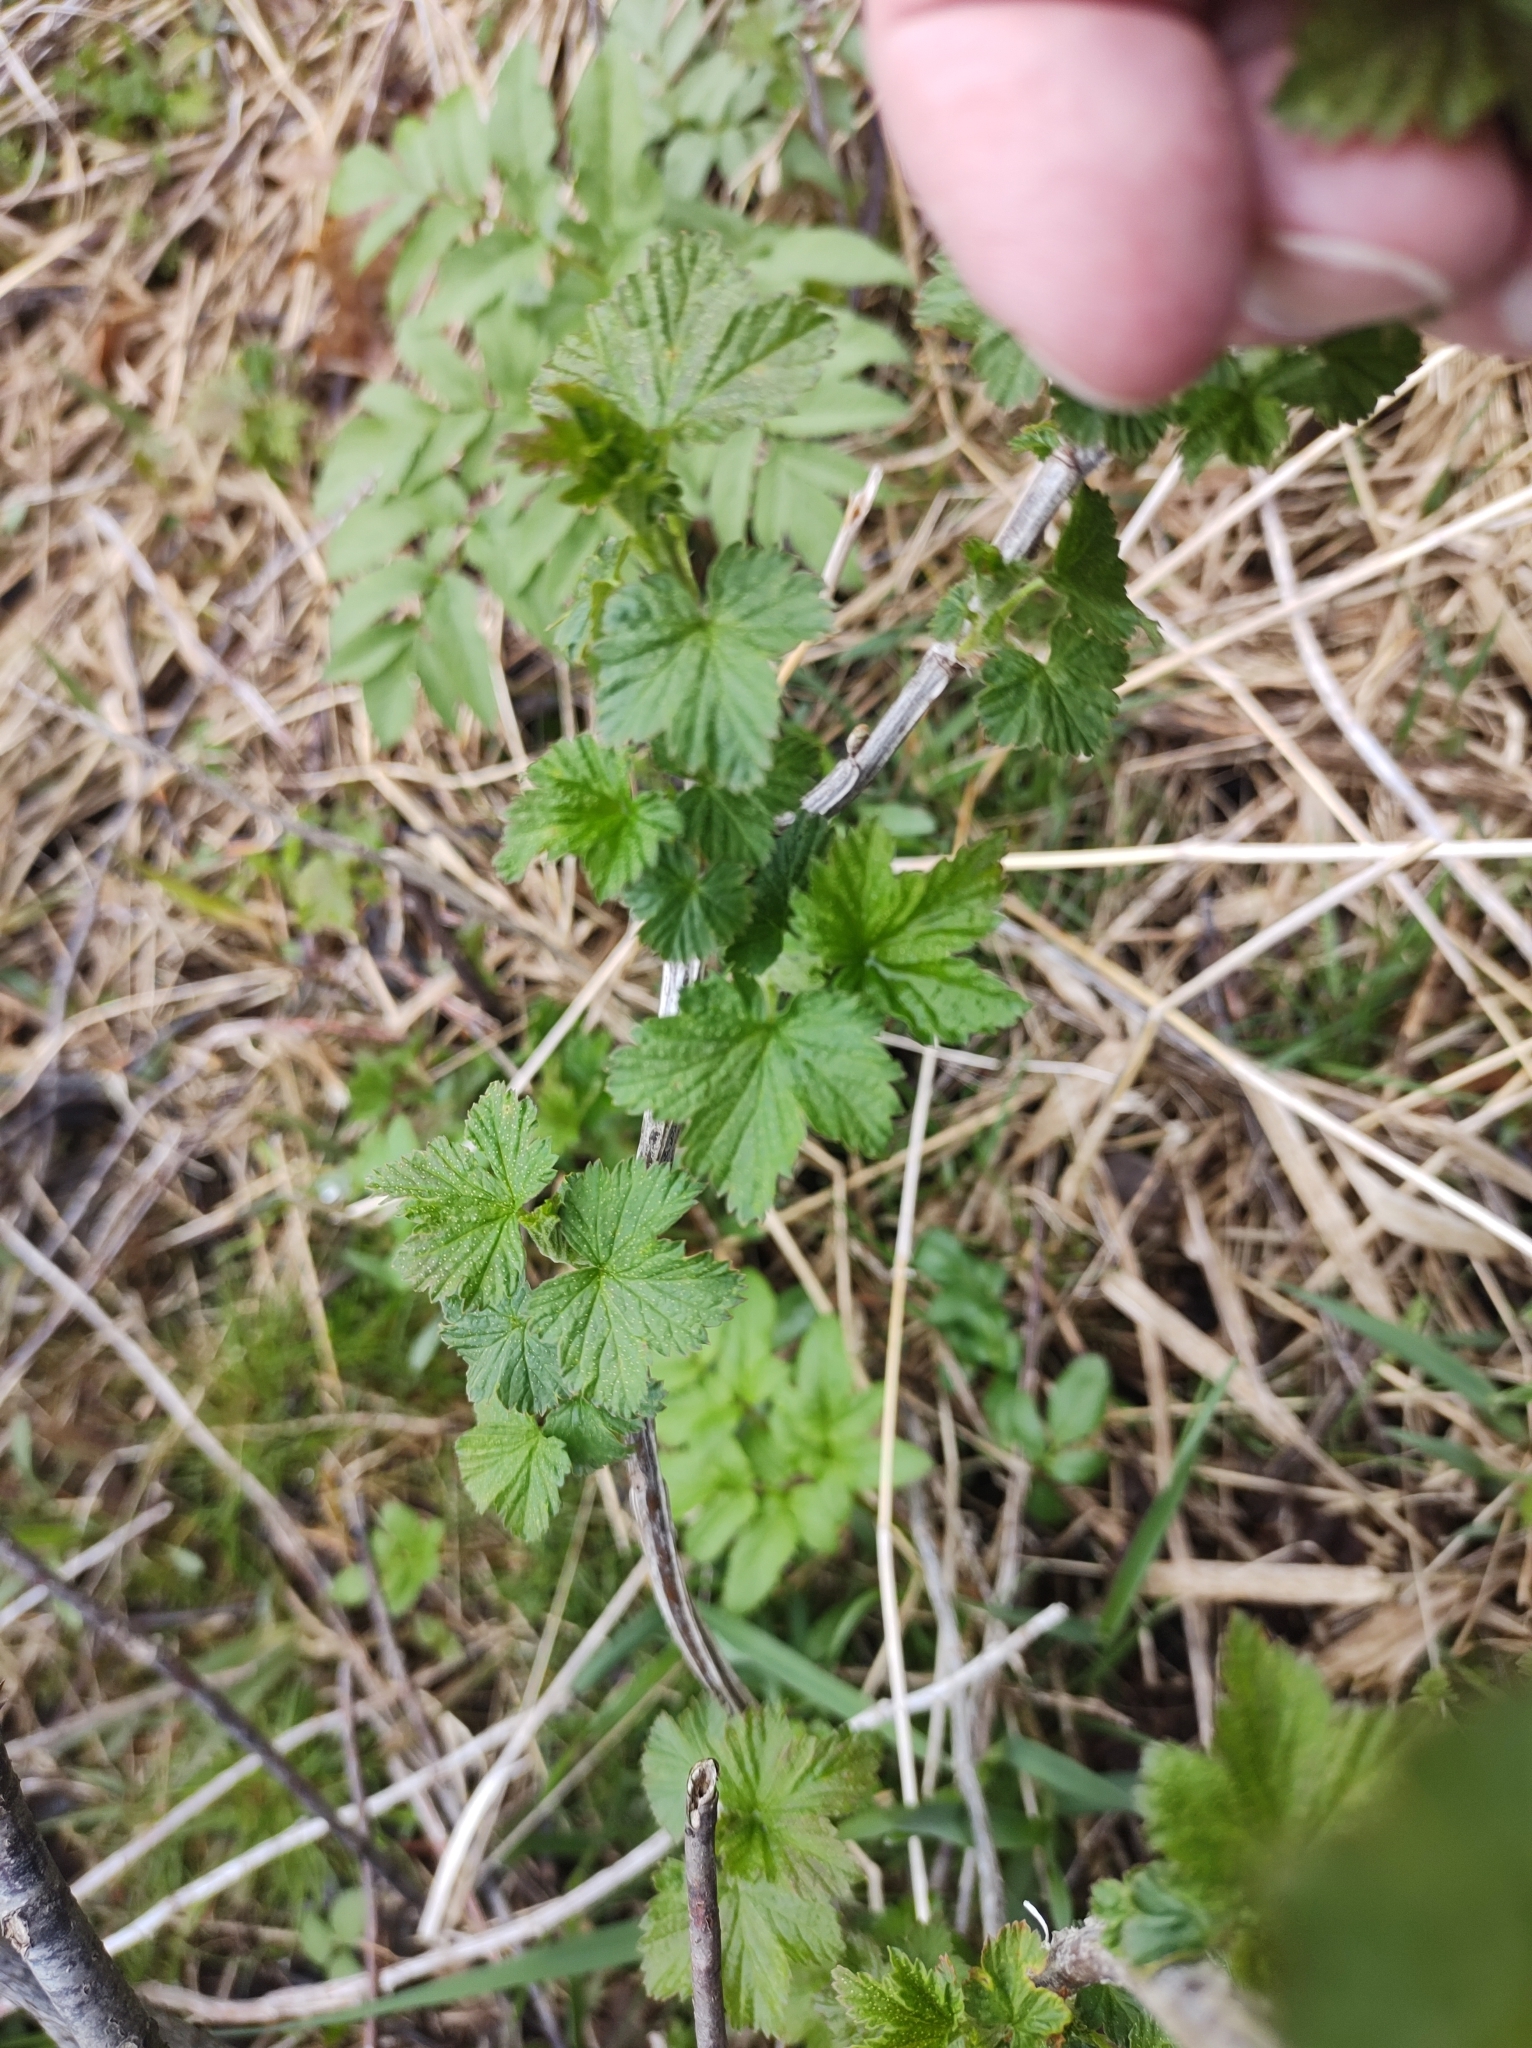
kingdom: Plantae
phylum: Tracheophyta
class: Magnoliopsida
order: Saxifragales
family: Grossulariaceae
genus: Ribes
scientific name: Ribes americanum
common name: American black currant
